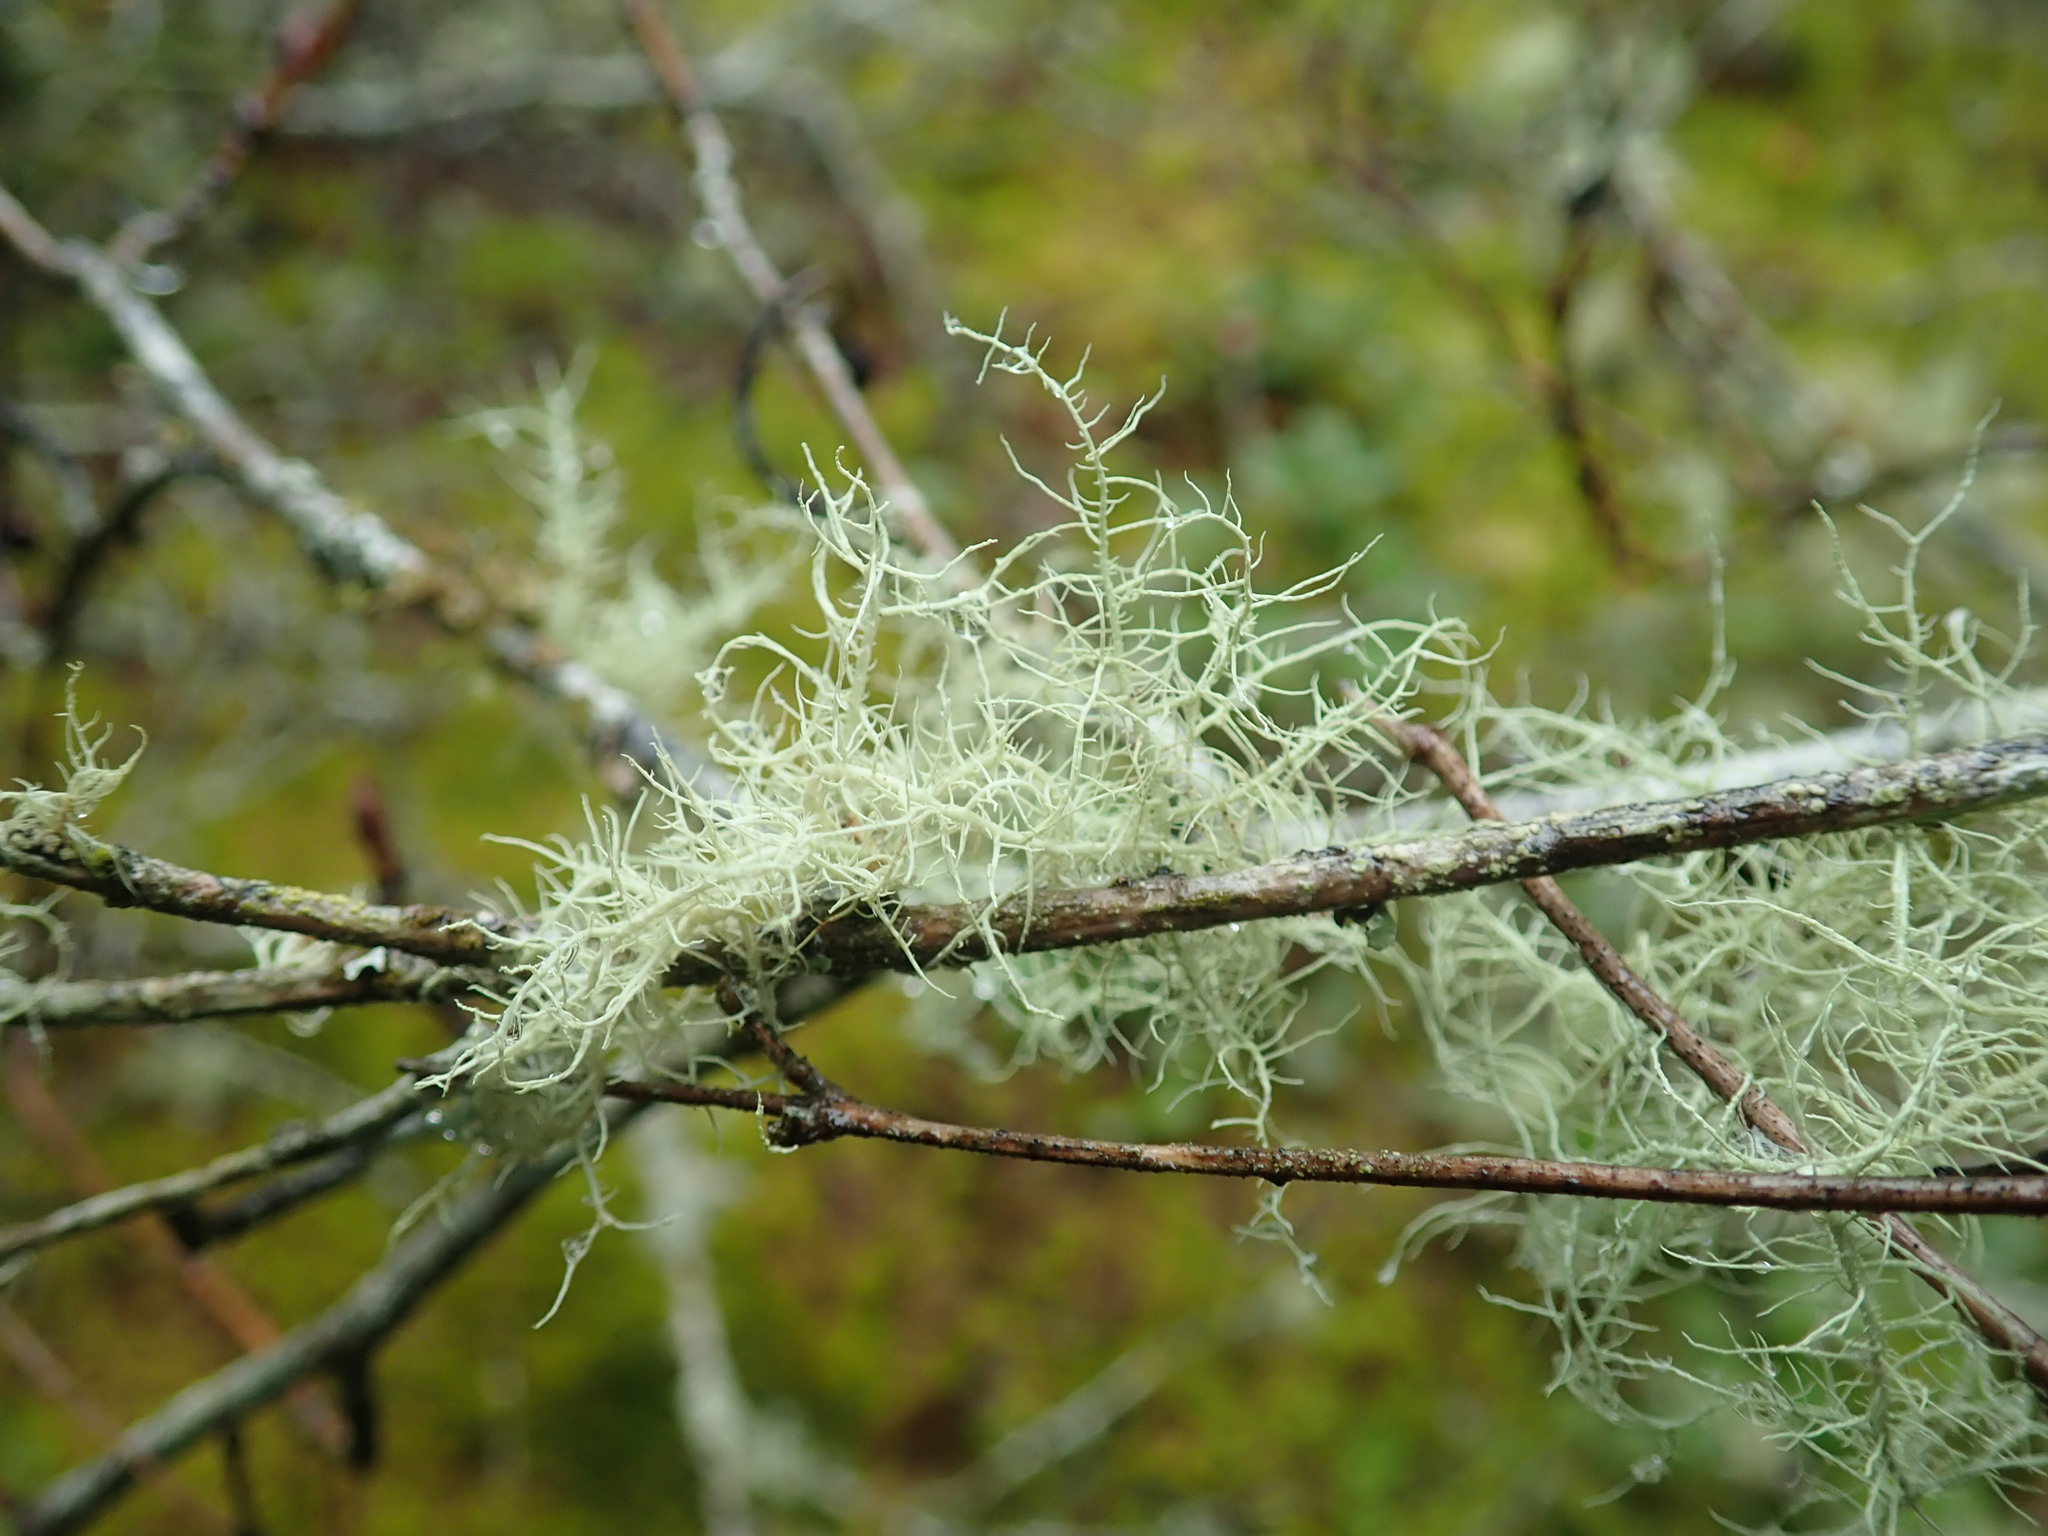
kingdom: Fungi
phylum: Ascomycota
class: Lecanoromycetes
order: Lecanorales
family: Parmeliaceae
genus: Usnea
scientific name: Usnea hirta
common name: Bristly beard lichen
